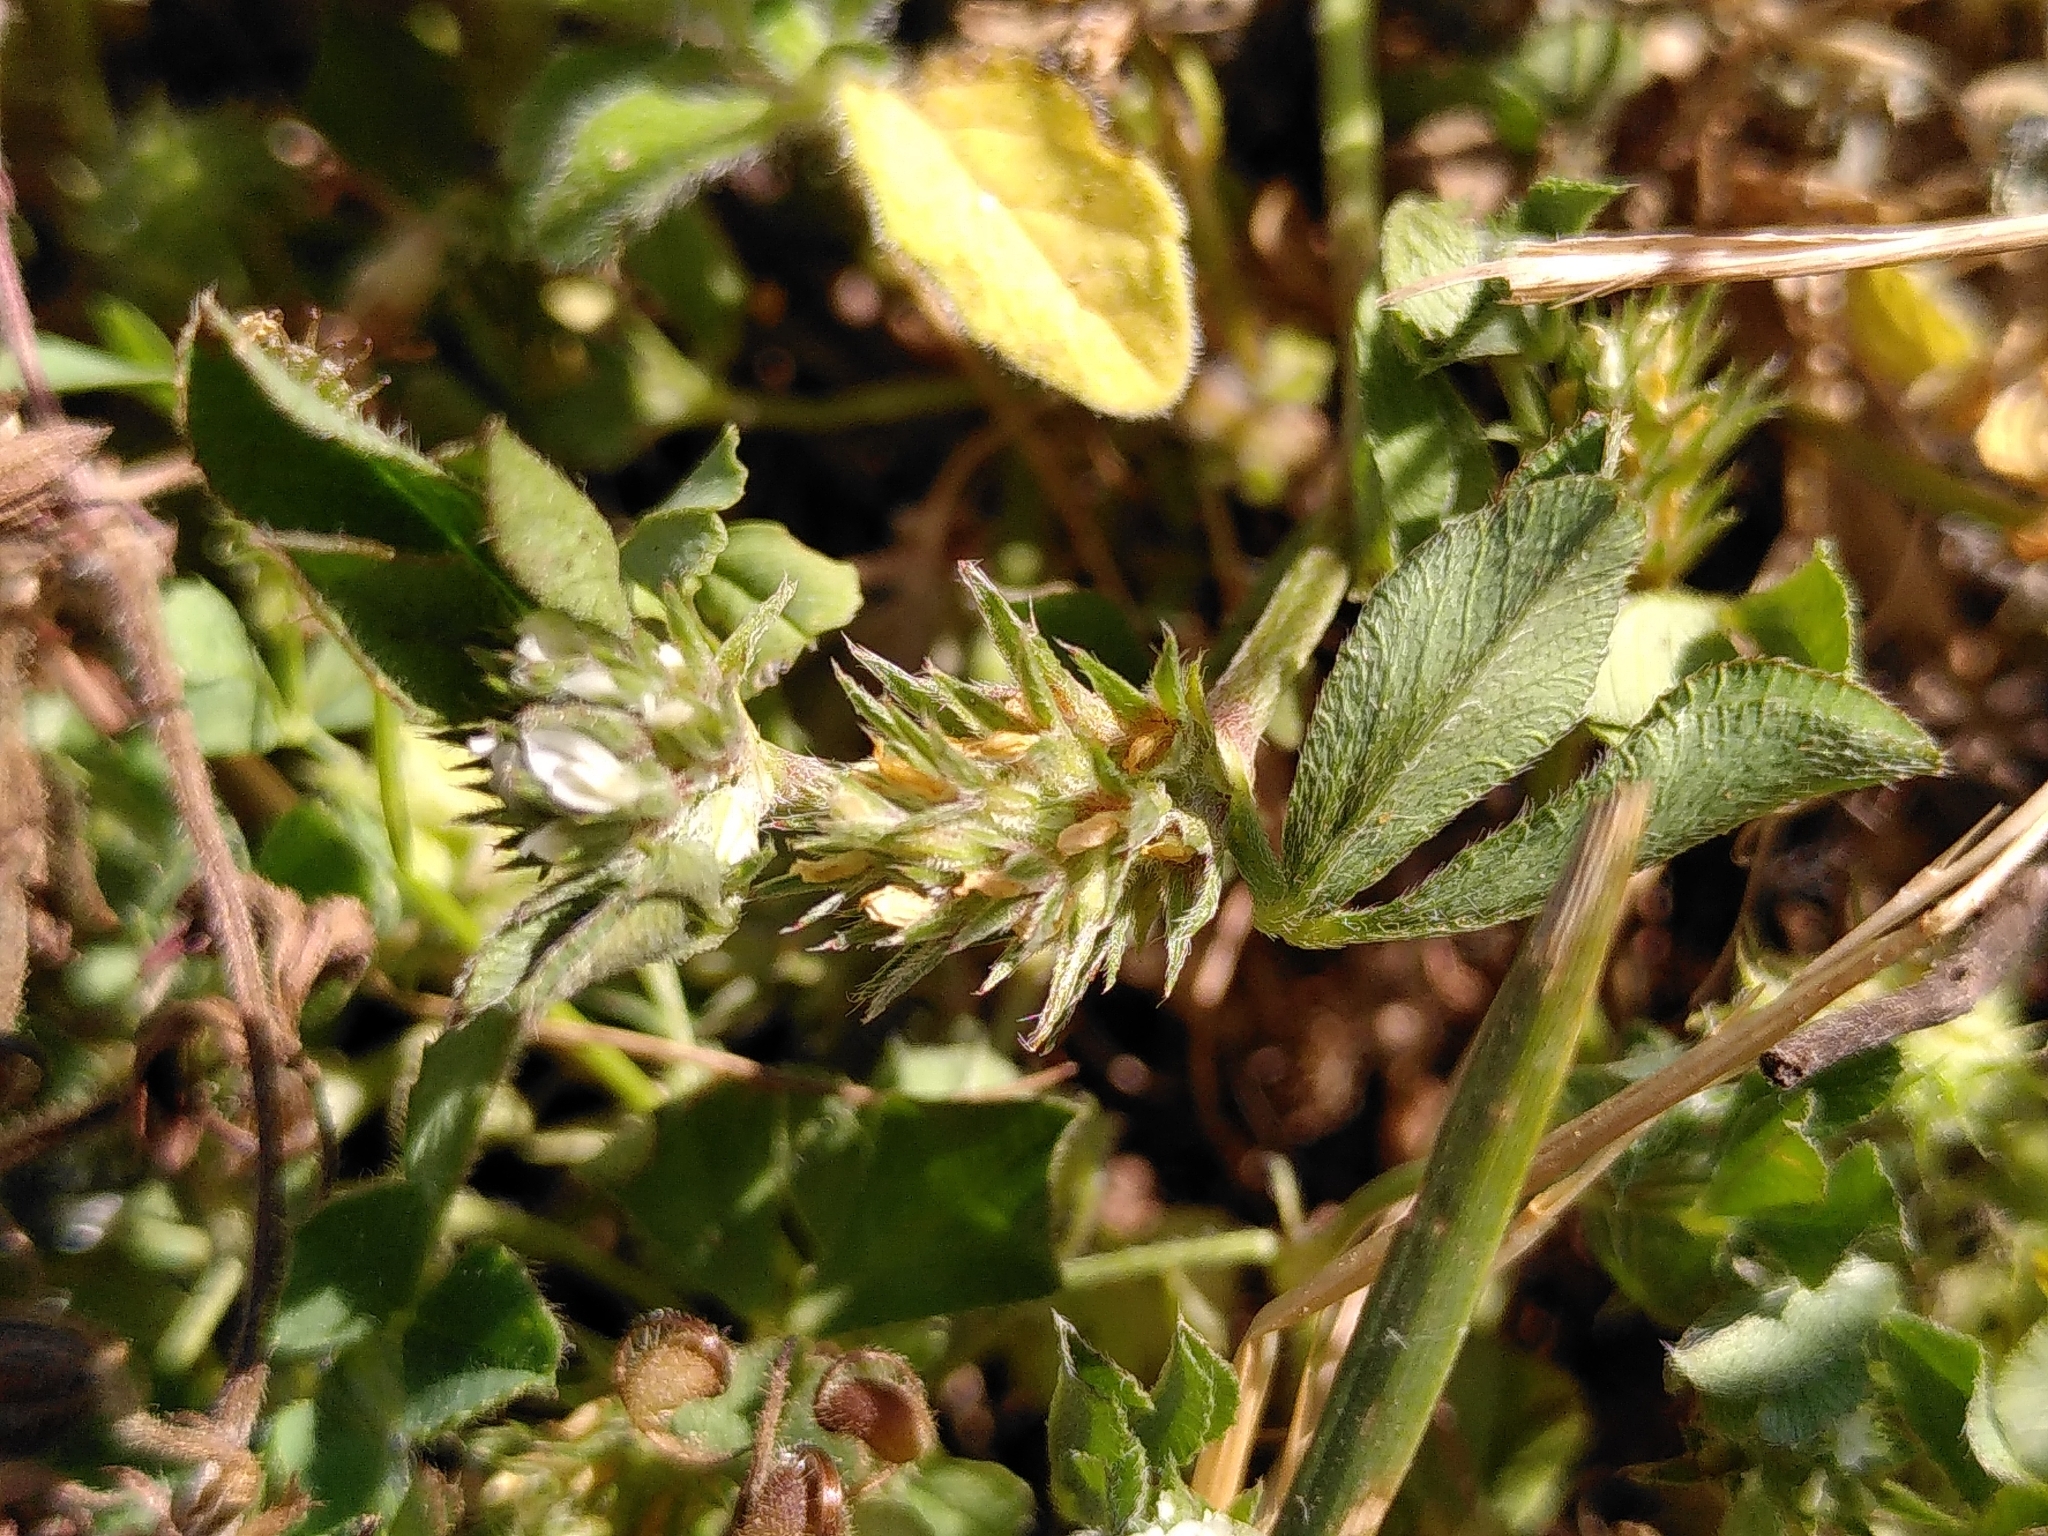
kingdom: Plantae
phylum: Tracheophyta
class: Magnoliopsida
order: Fabales
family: Fabaceae
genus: Trifolium
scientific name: Trifolium scabrum
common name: Rough clover
